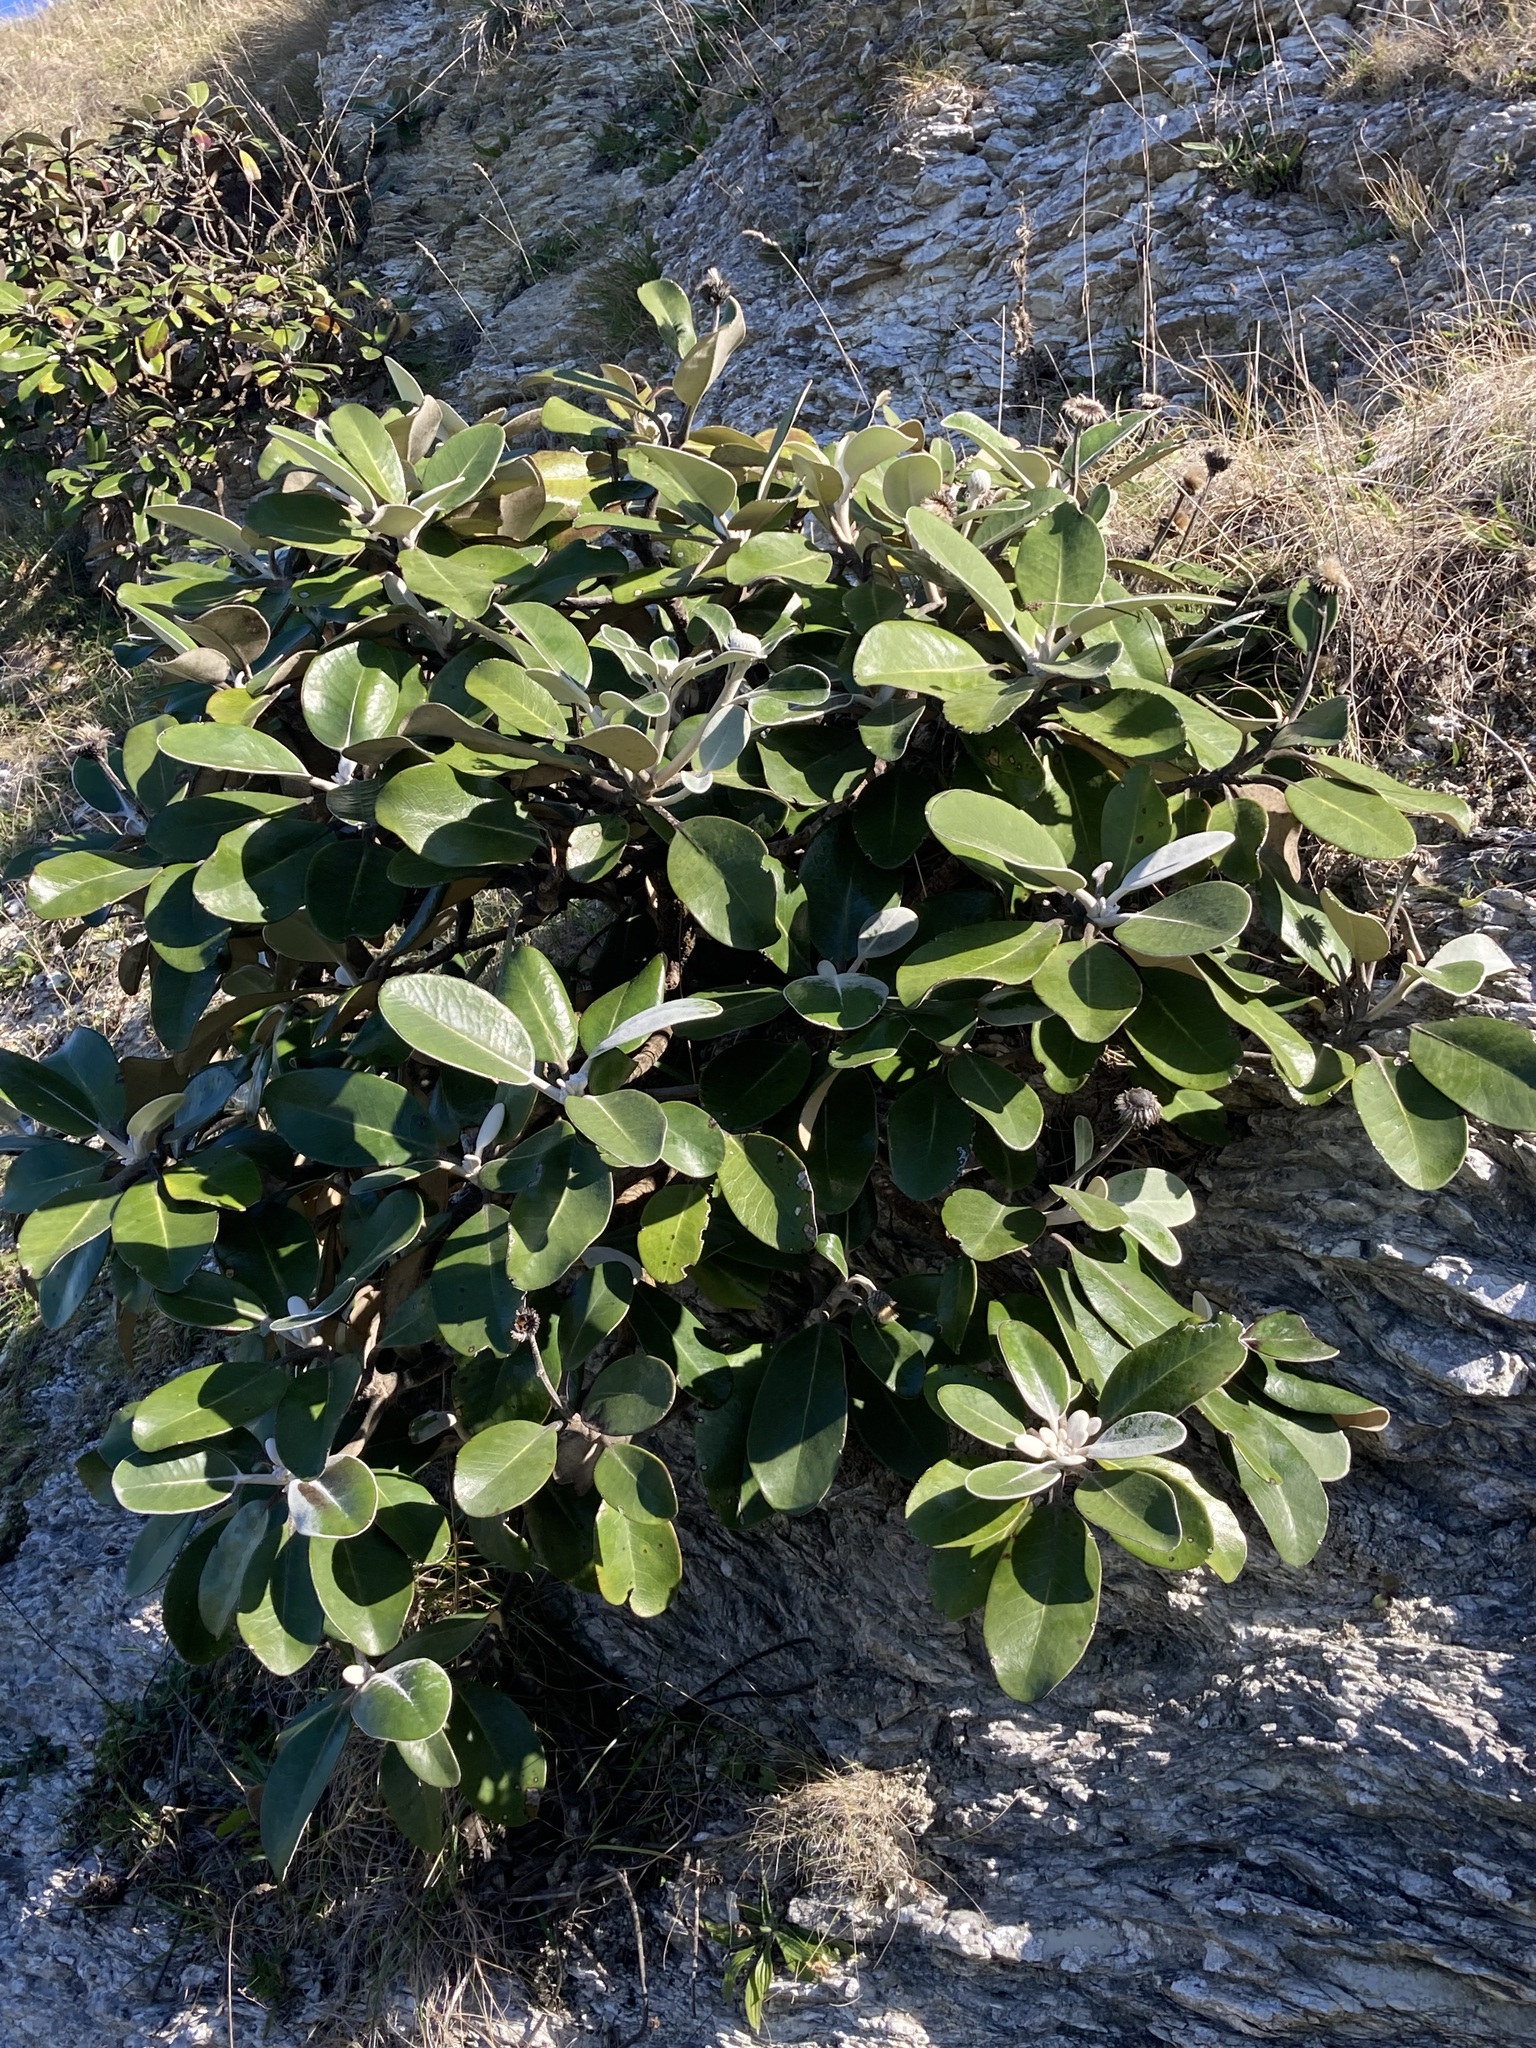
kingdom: Plantae
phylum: Tracheophyta
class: Magnoliopsida
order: Asterales
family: Asteraceae
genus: Pachystegia
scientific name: Pachystegia insignis
